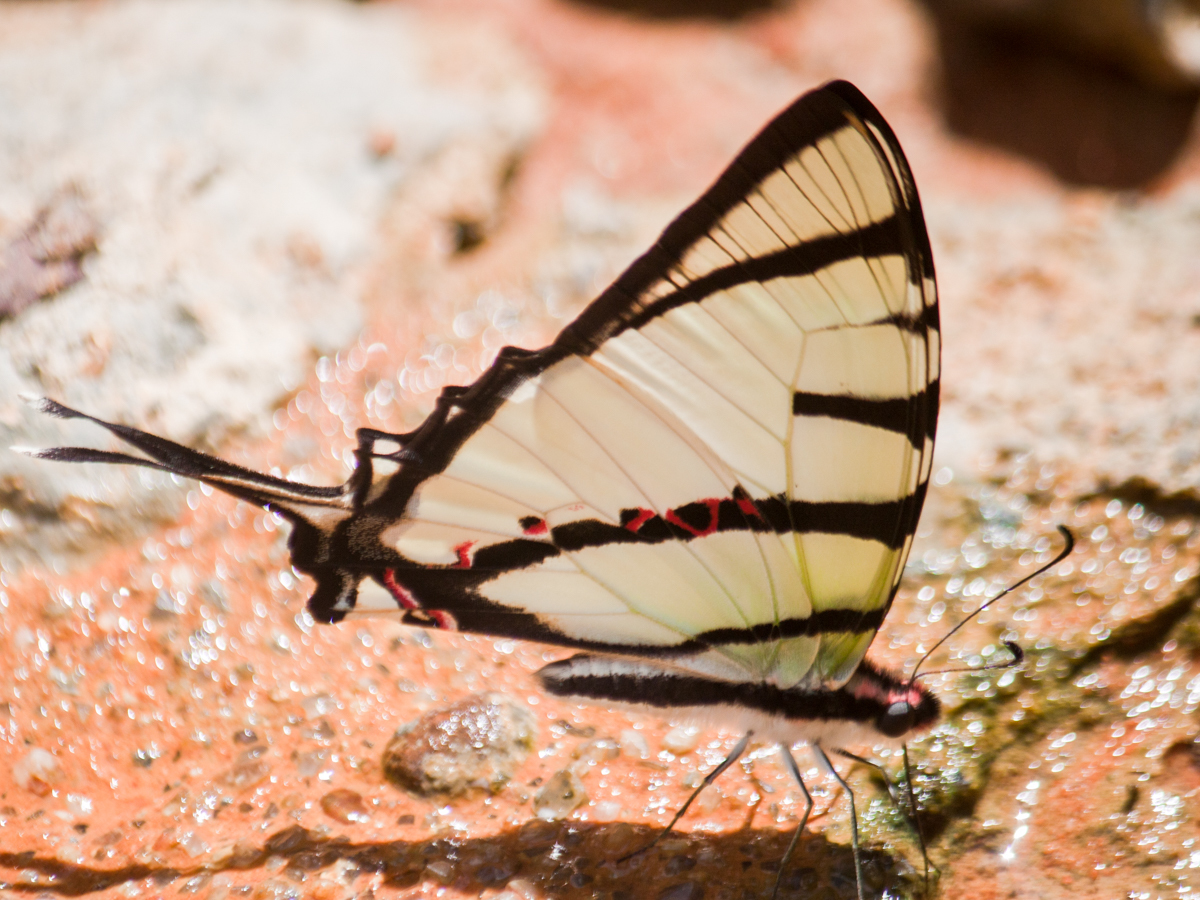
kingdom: Animalia
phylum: Arthropoda
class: Insecta
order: Lepidoptera
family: Papilionidae
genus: Graphium
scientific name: Graphium agetes
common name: Fourbar swordtail
